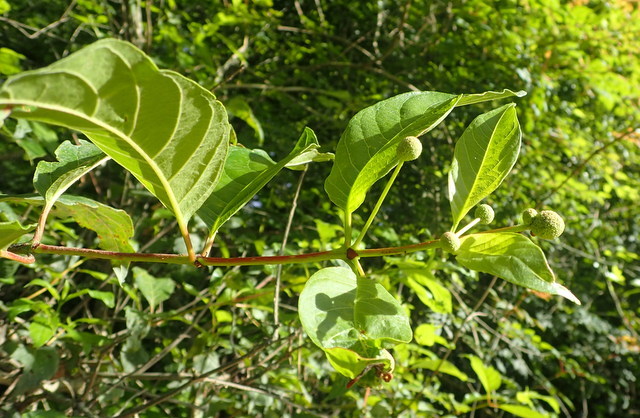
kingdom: Plantae
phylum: Tracheophyta
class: Magnoliopsida
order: Gentianales
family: Rubiaceae
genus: Cephalanthus
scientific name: Cephalanthus occidentalis
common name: Button-willow
